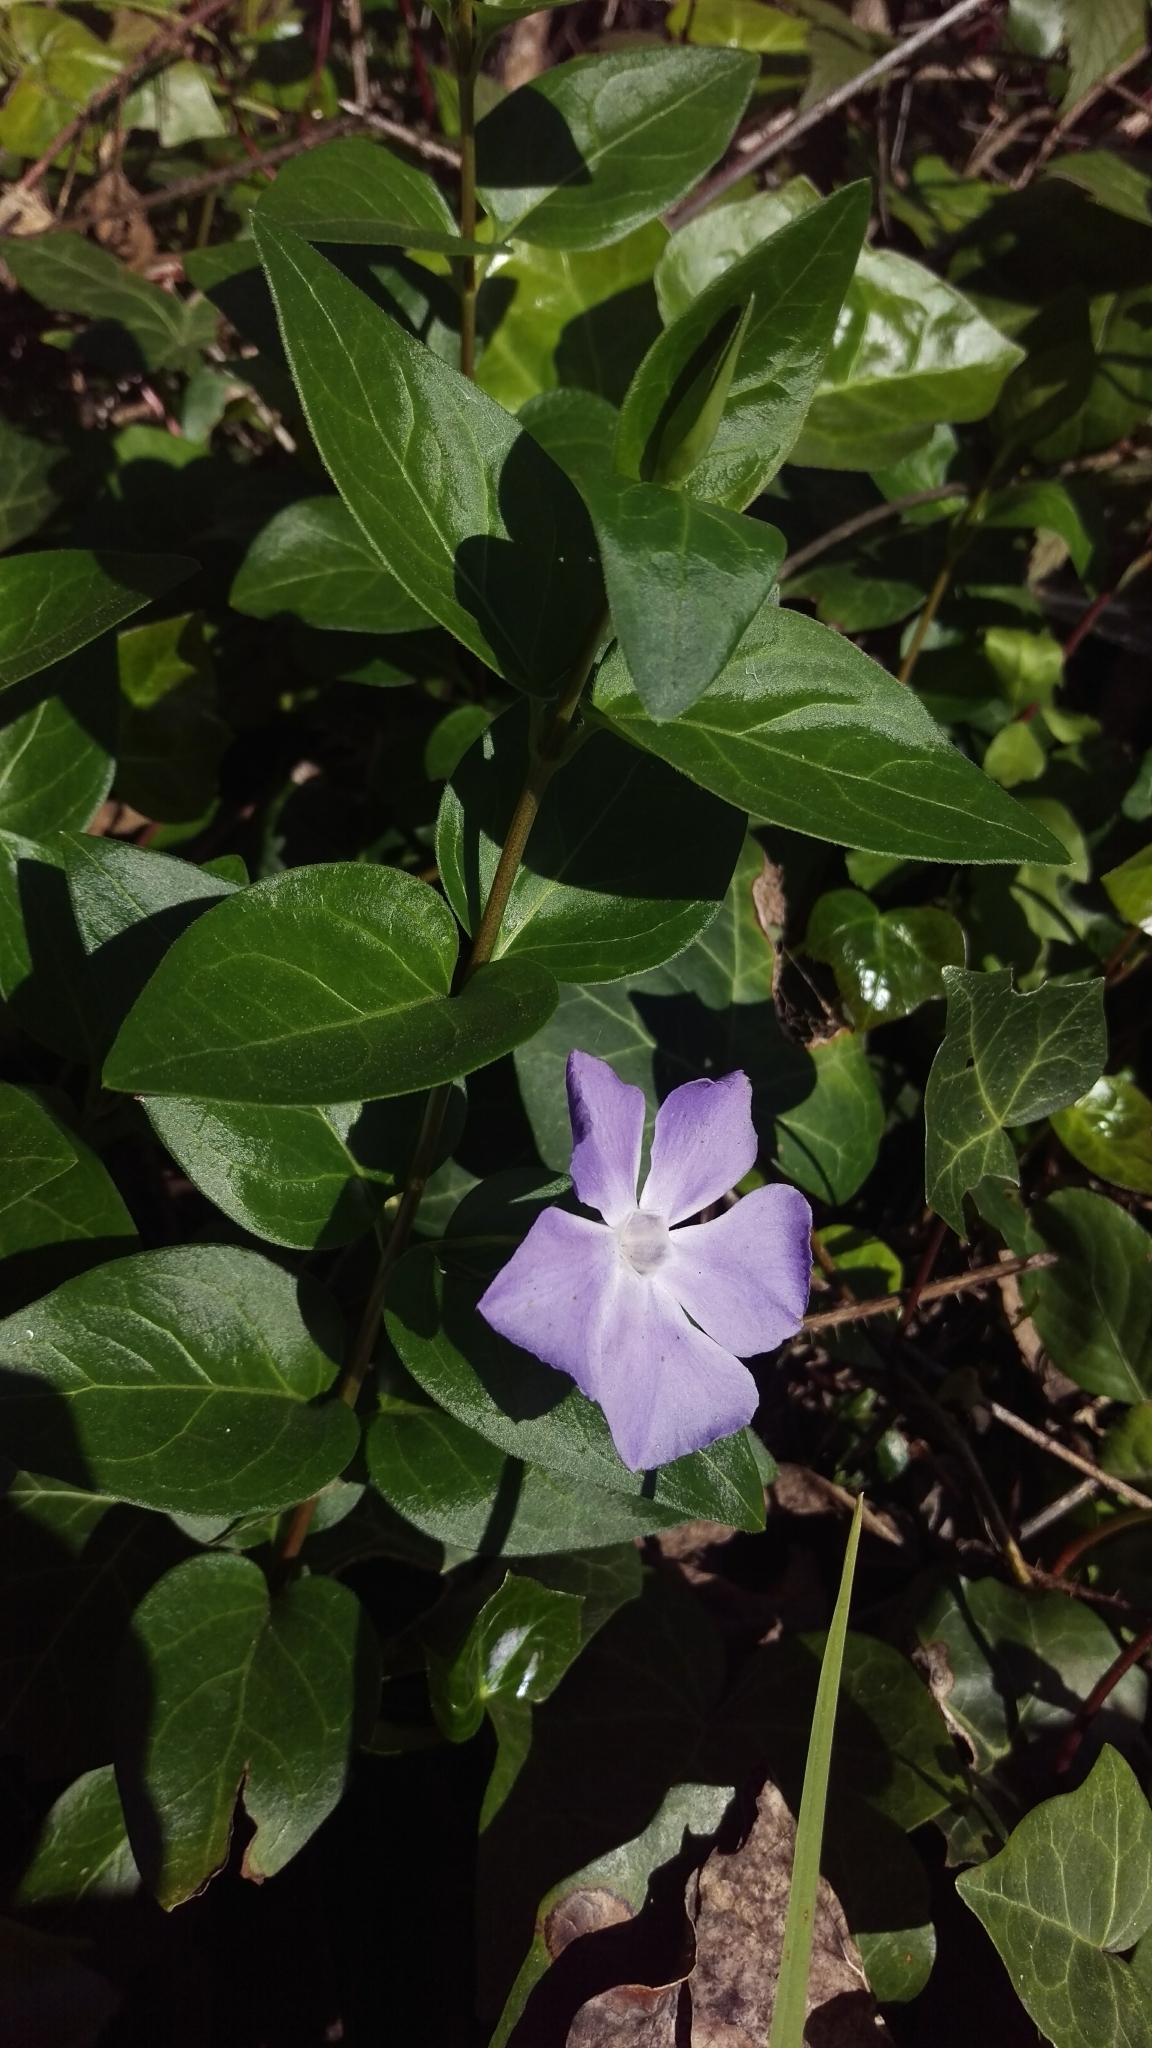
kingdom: Plantae
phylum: Tracheophyta
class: Magnoliopsida
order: Gentianales
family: Apocynaceae
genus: Vinca
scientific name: Vinca major
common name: Greater periwinkle
